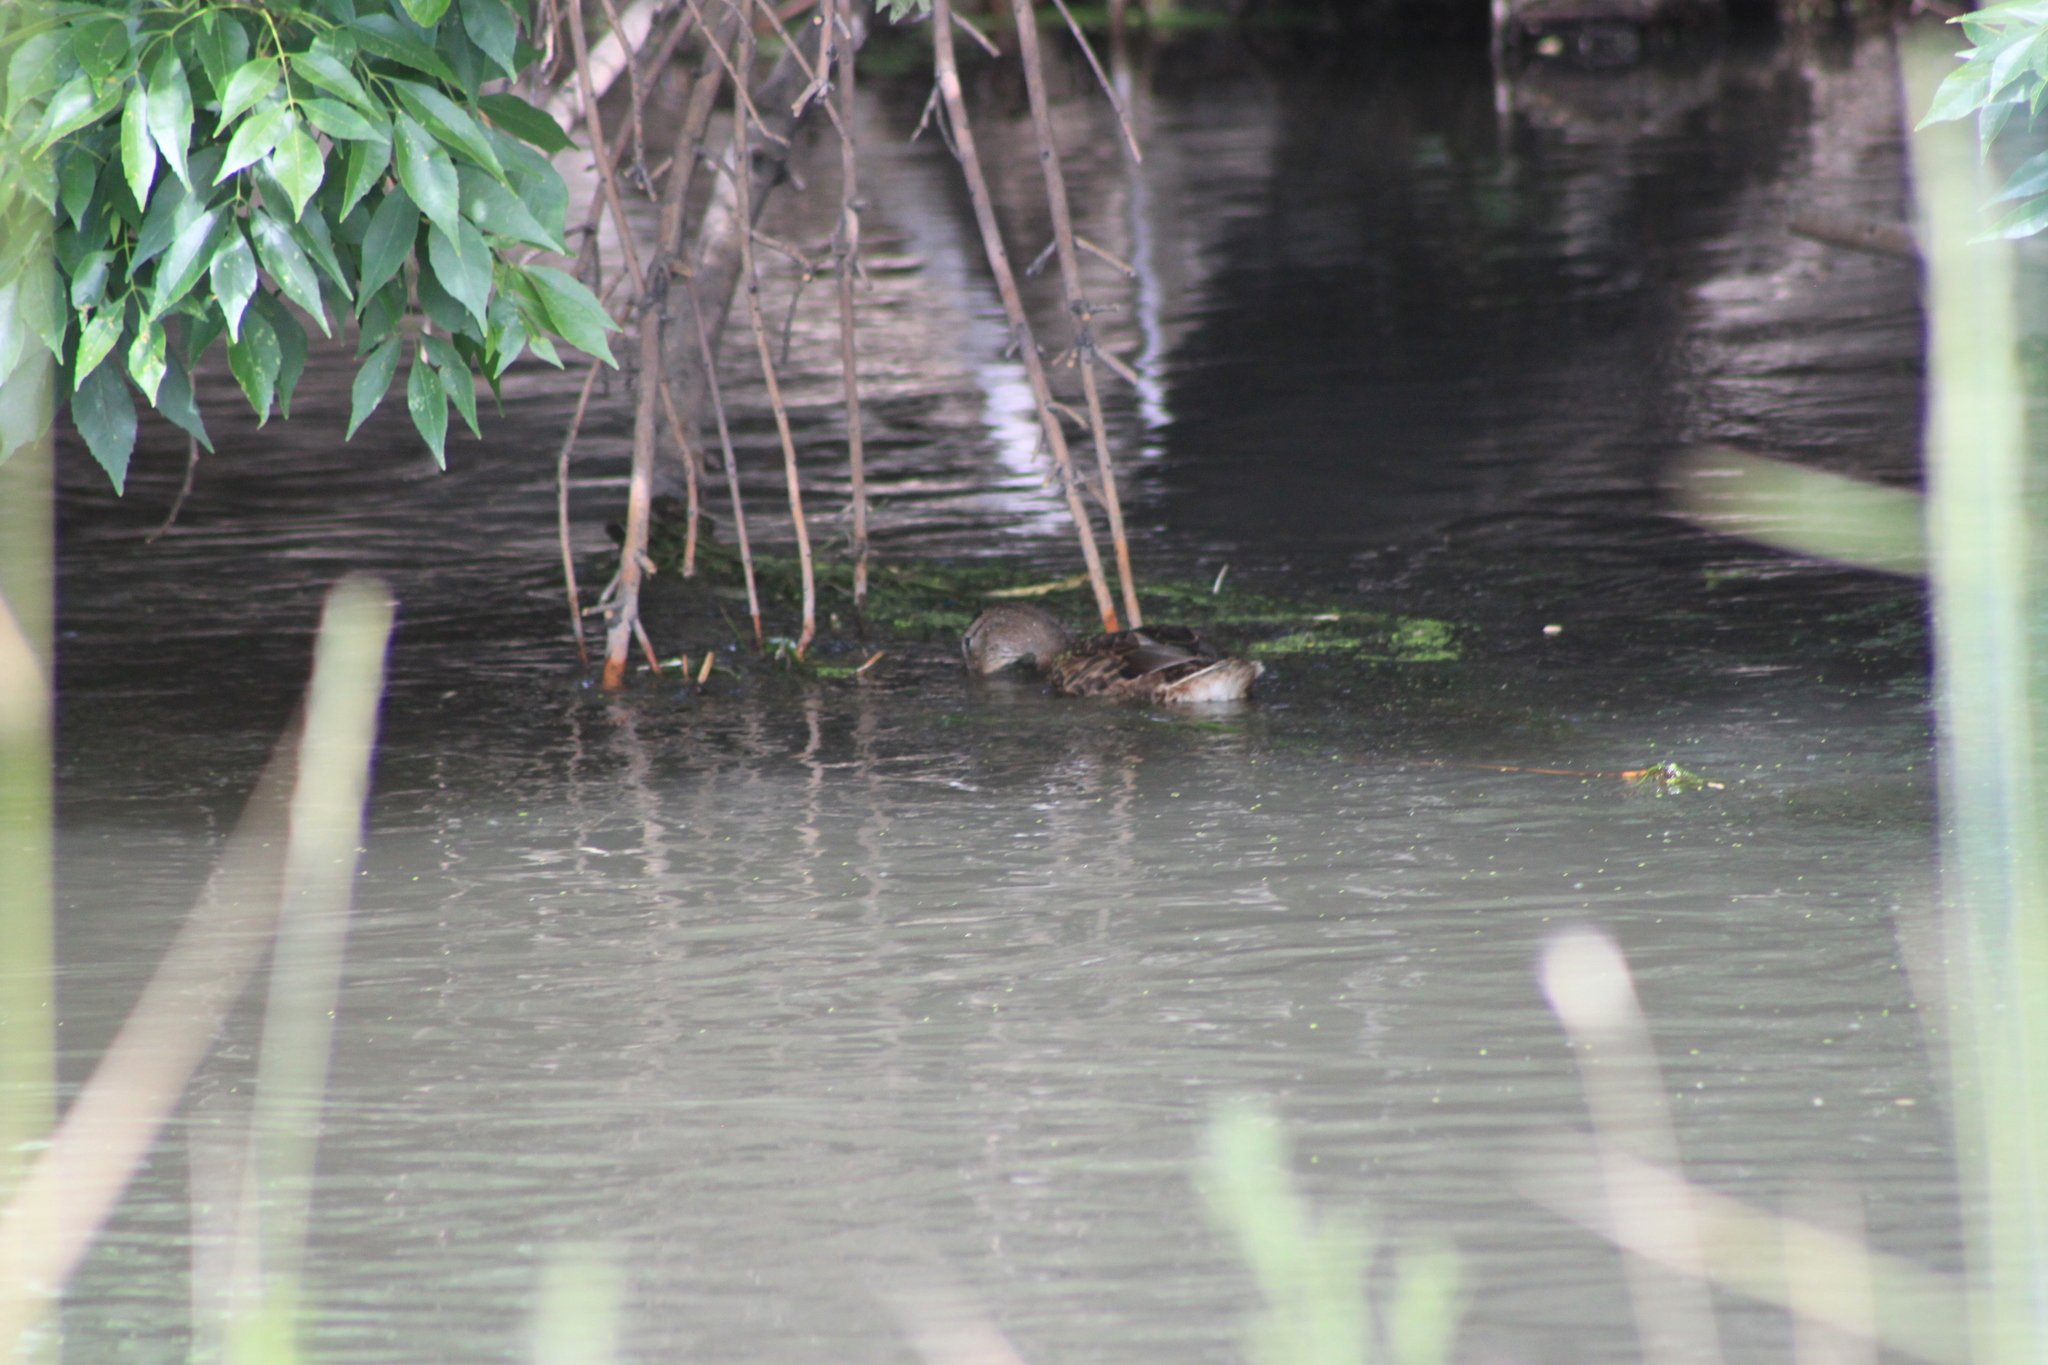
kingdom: Animalia
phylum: Chordata
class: Aves
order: Anseriformes
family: Anatidae
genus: Anas
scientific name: Anas platyrhynchos
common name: Mallard
